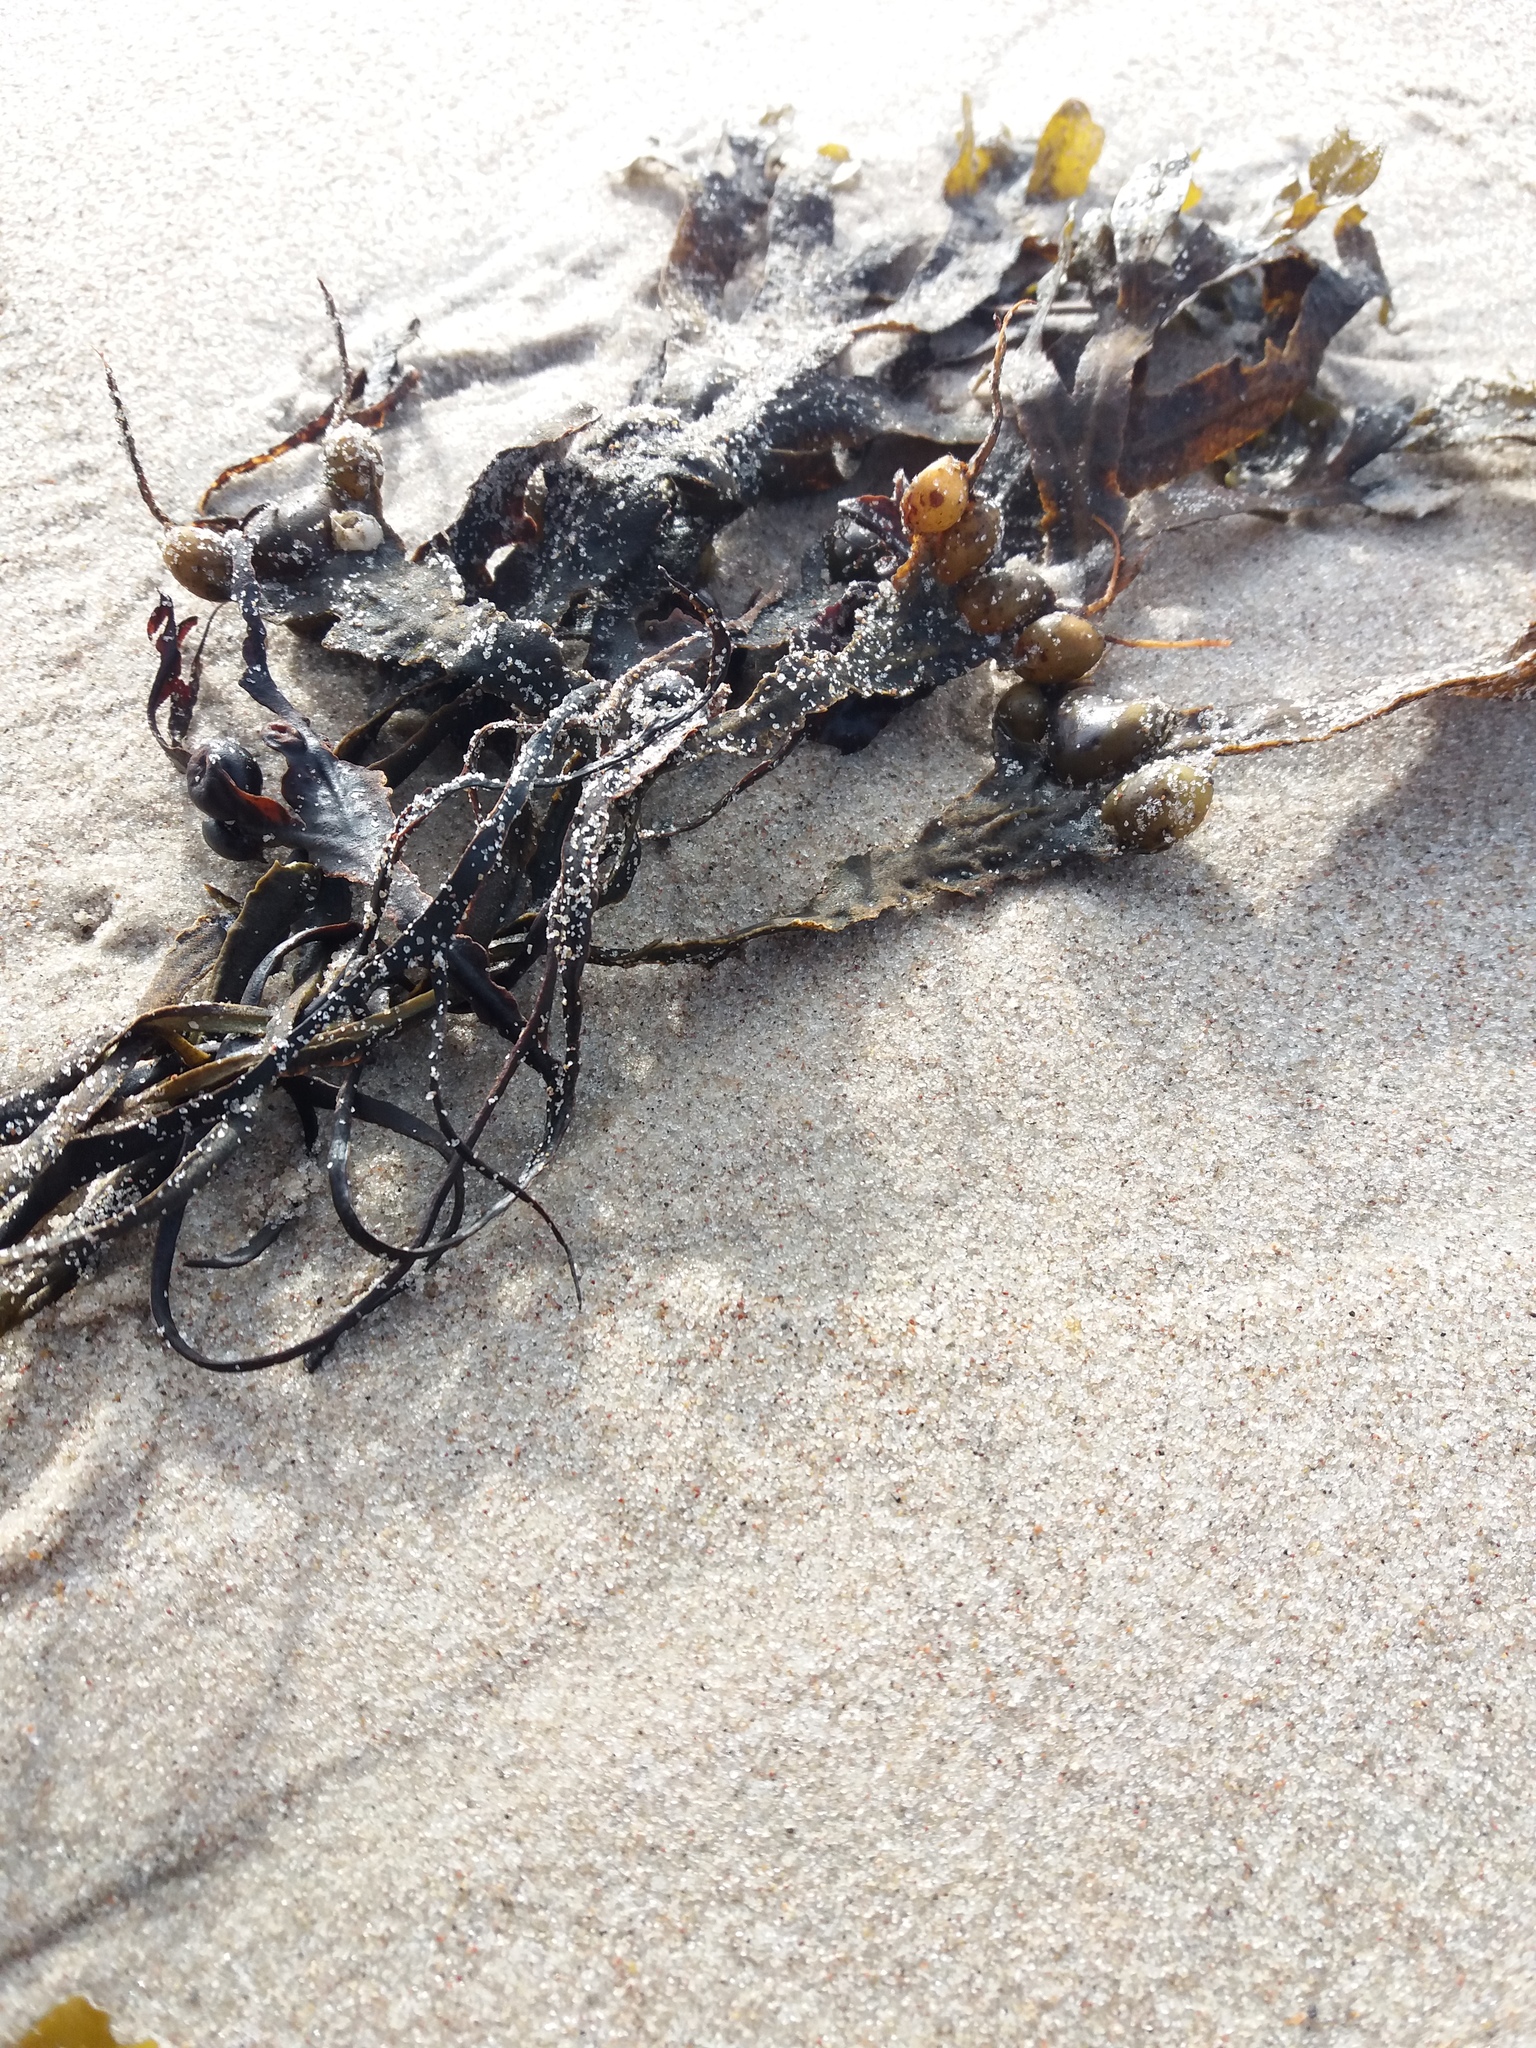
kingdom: Chromista
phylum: Ochrophyta
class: Phaeophyceae
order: Fucales
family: Fucaceae
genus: Fucus
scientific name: Fucus vesiculosus
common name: Bladder wrack
